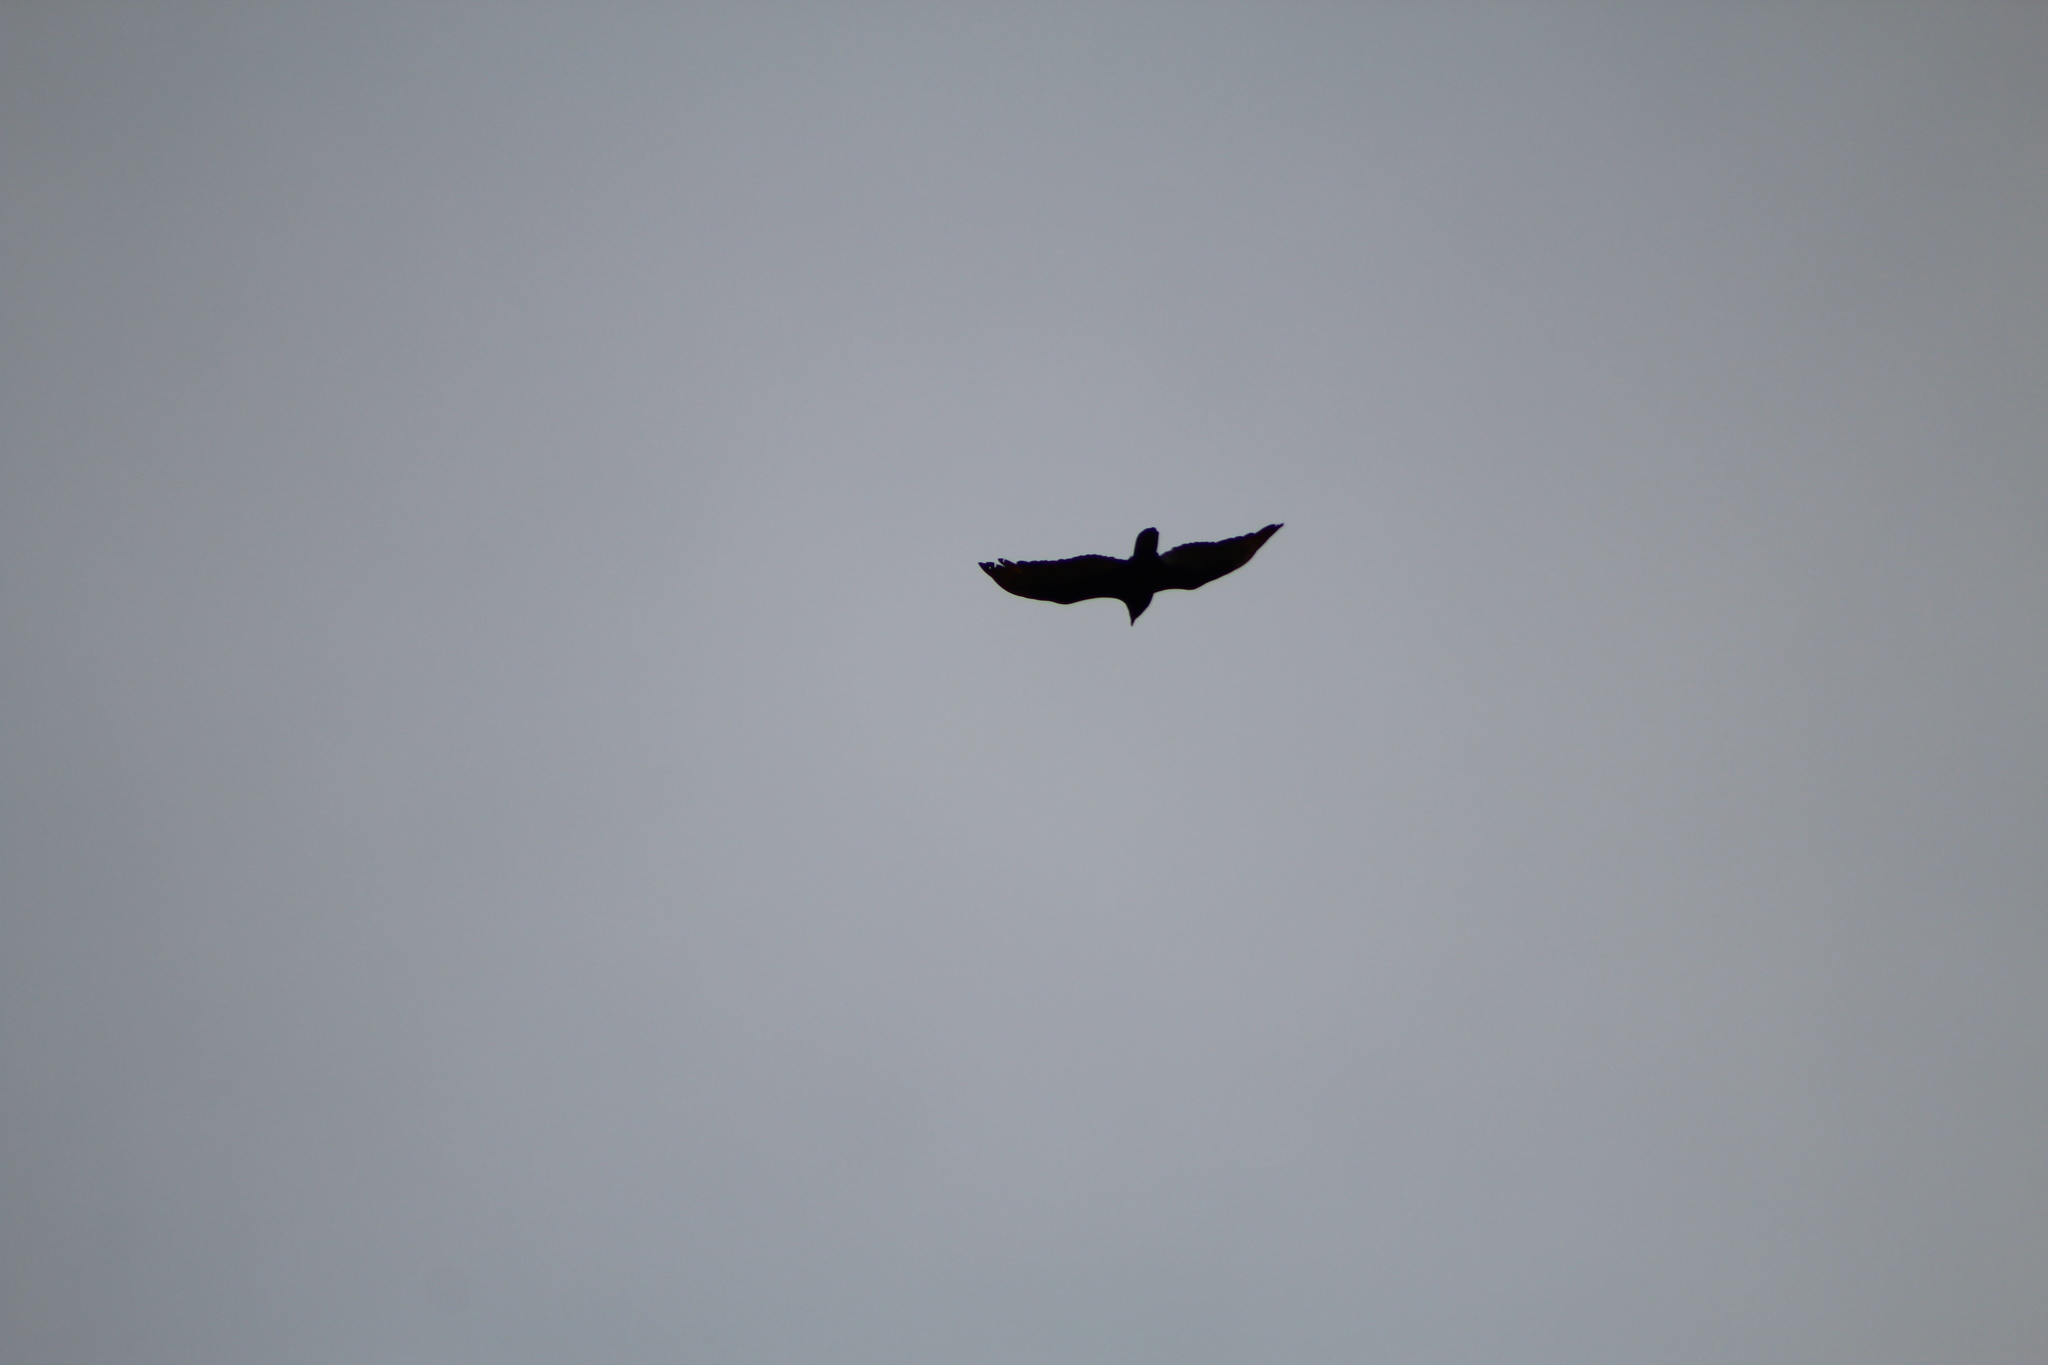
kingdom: Animalia
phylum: Chordata
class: Aves
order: Accipitriformes
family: Cathartidae
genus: Cathartes
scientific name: Cathartes aura
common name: Turkey vulture
